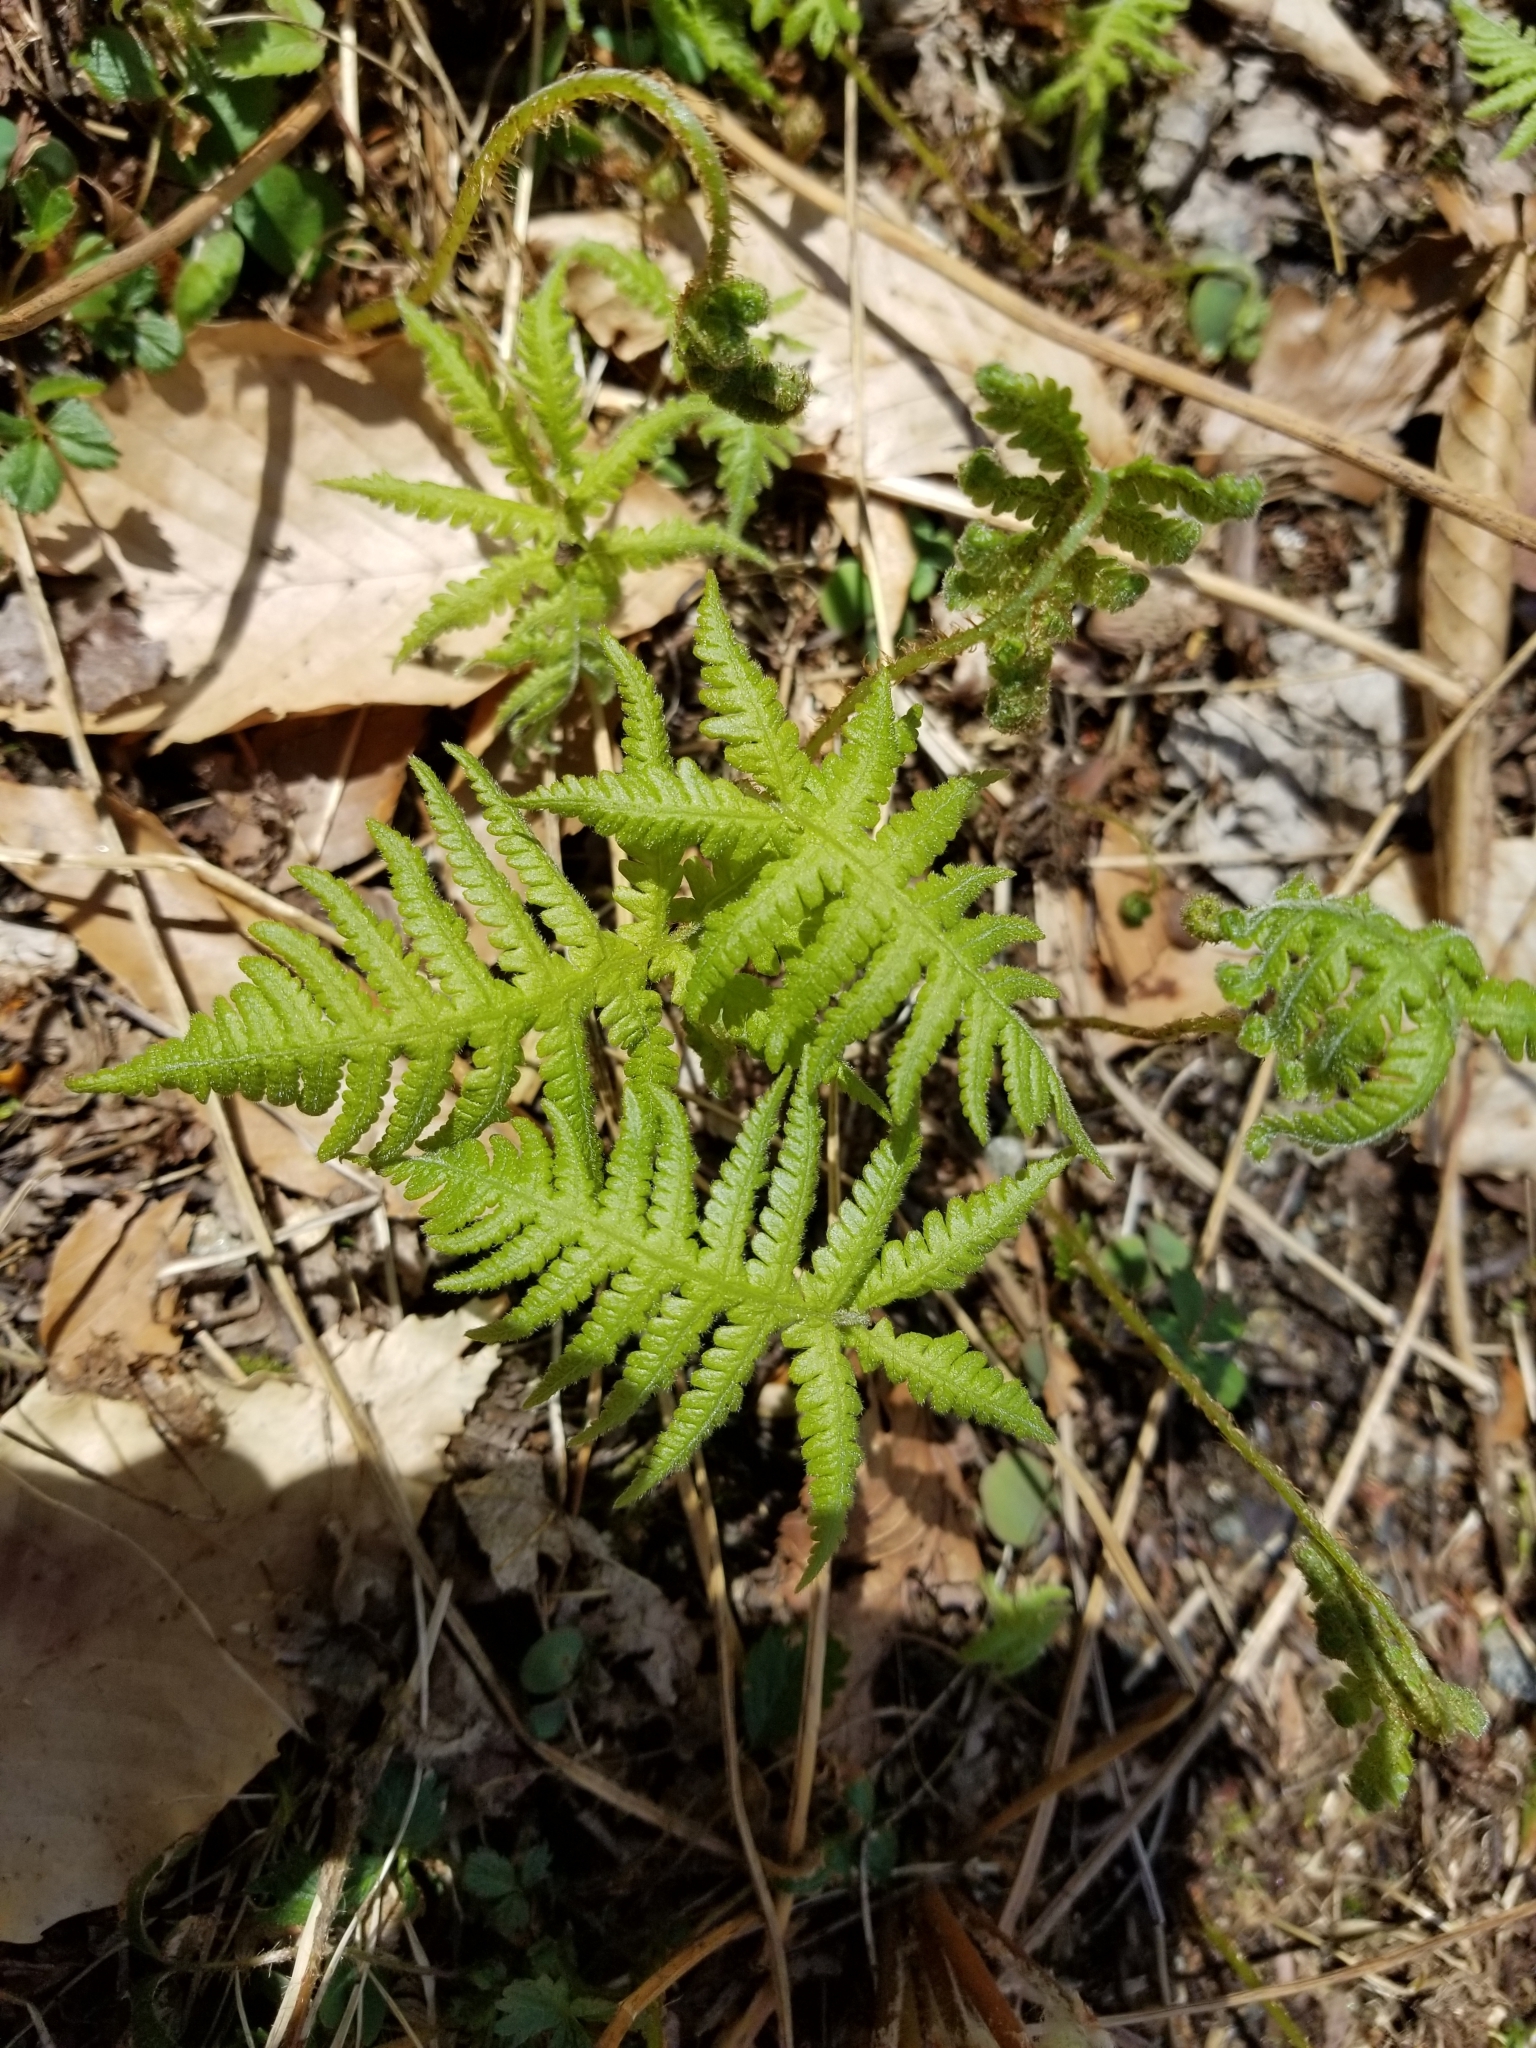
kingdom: Plantae
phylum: Tracheophyta
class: Polypodiopsida
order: Polypodiales
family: Thelypteridaceae
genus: Phegopteris
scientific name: Phegopteris connectilis
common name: Beech fern
